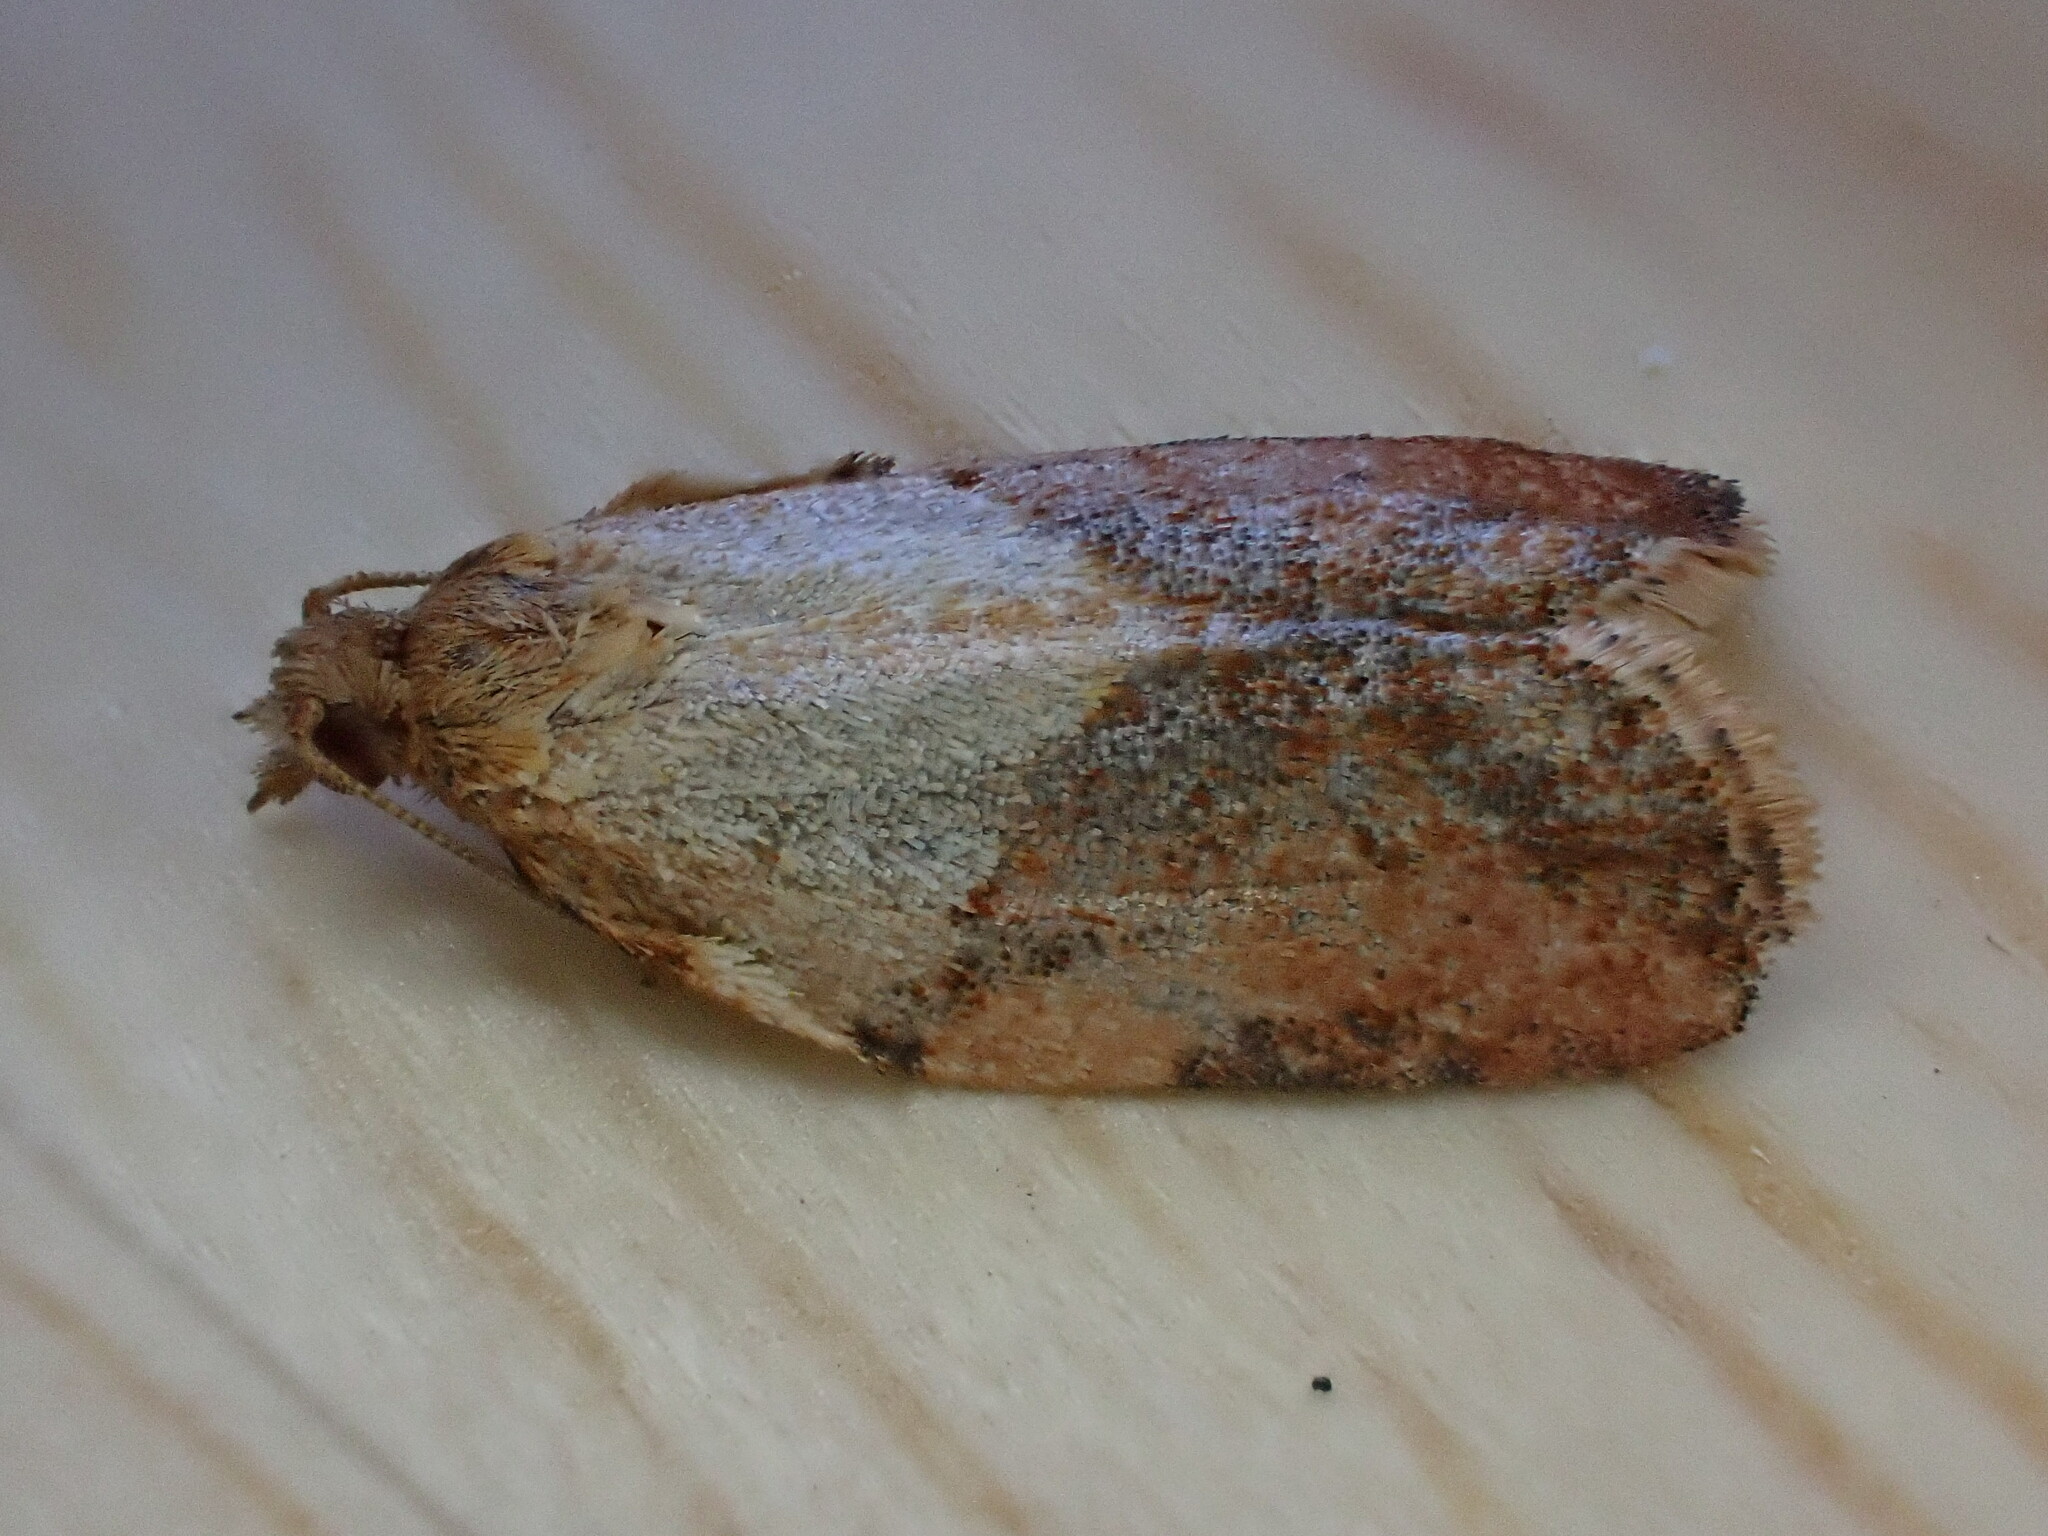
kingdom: Animalia
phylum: Arthropoda
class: Insecta
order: Lepidoptera
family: Tortricidae
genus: Epiphyas
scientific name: Epiphyas postvittana
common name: Light brown apple moth
